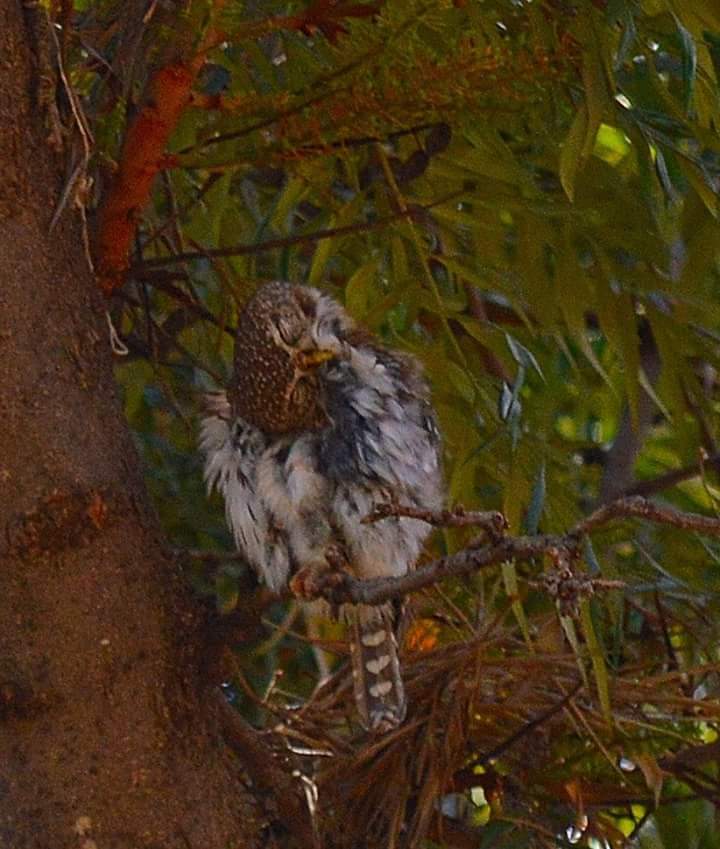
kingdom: Animalia
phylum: Chordata
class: Aves
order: Strigiformes
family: Strigidae
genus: Glaucidium
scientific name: Glaucidium perlatum
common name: Pearl-spotted owlet
